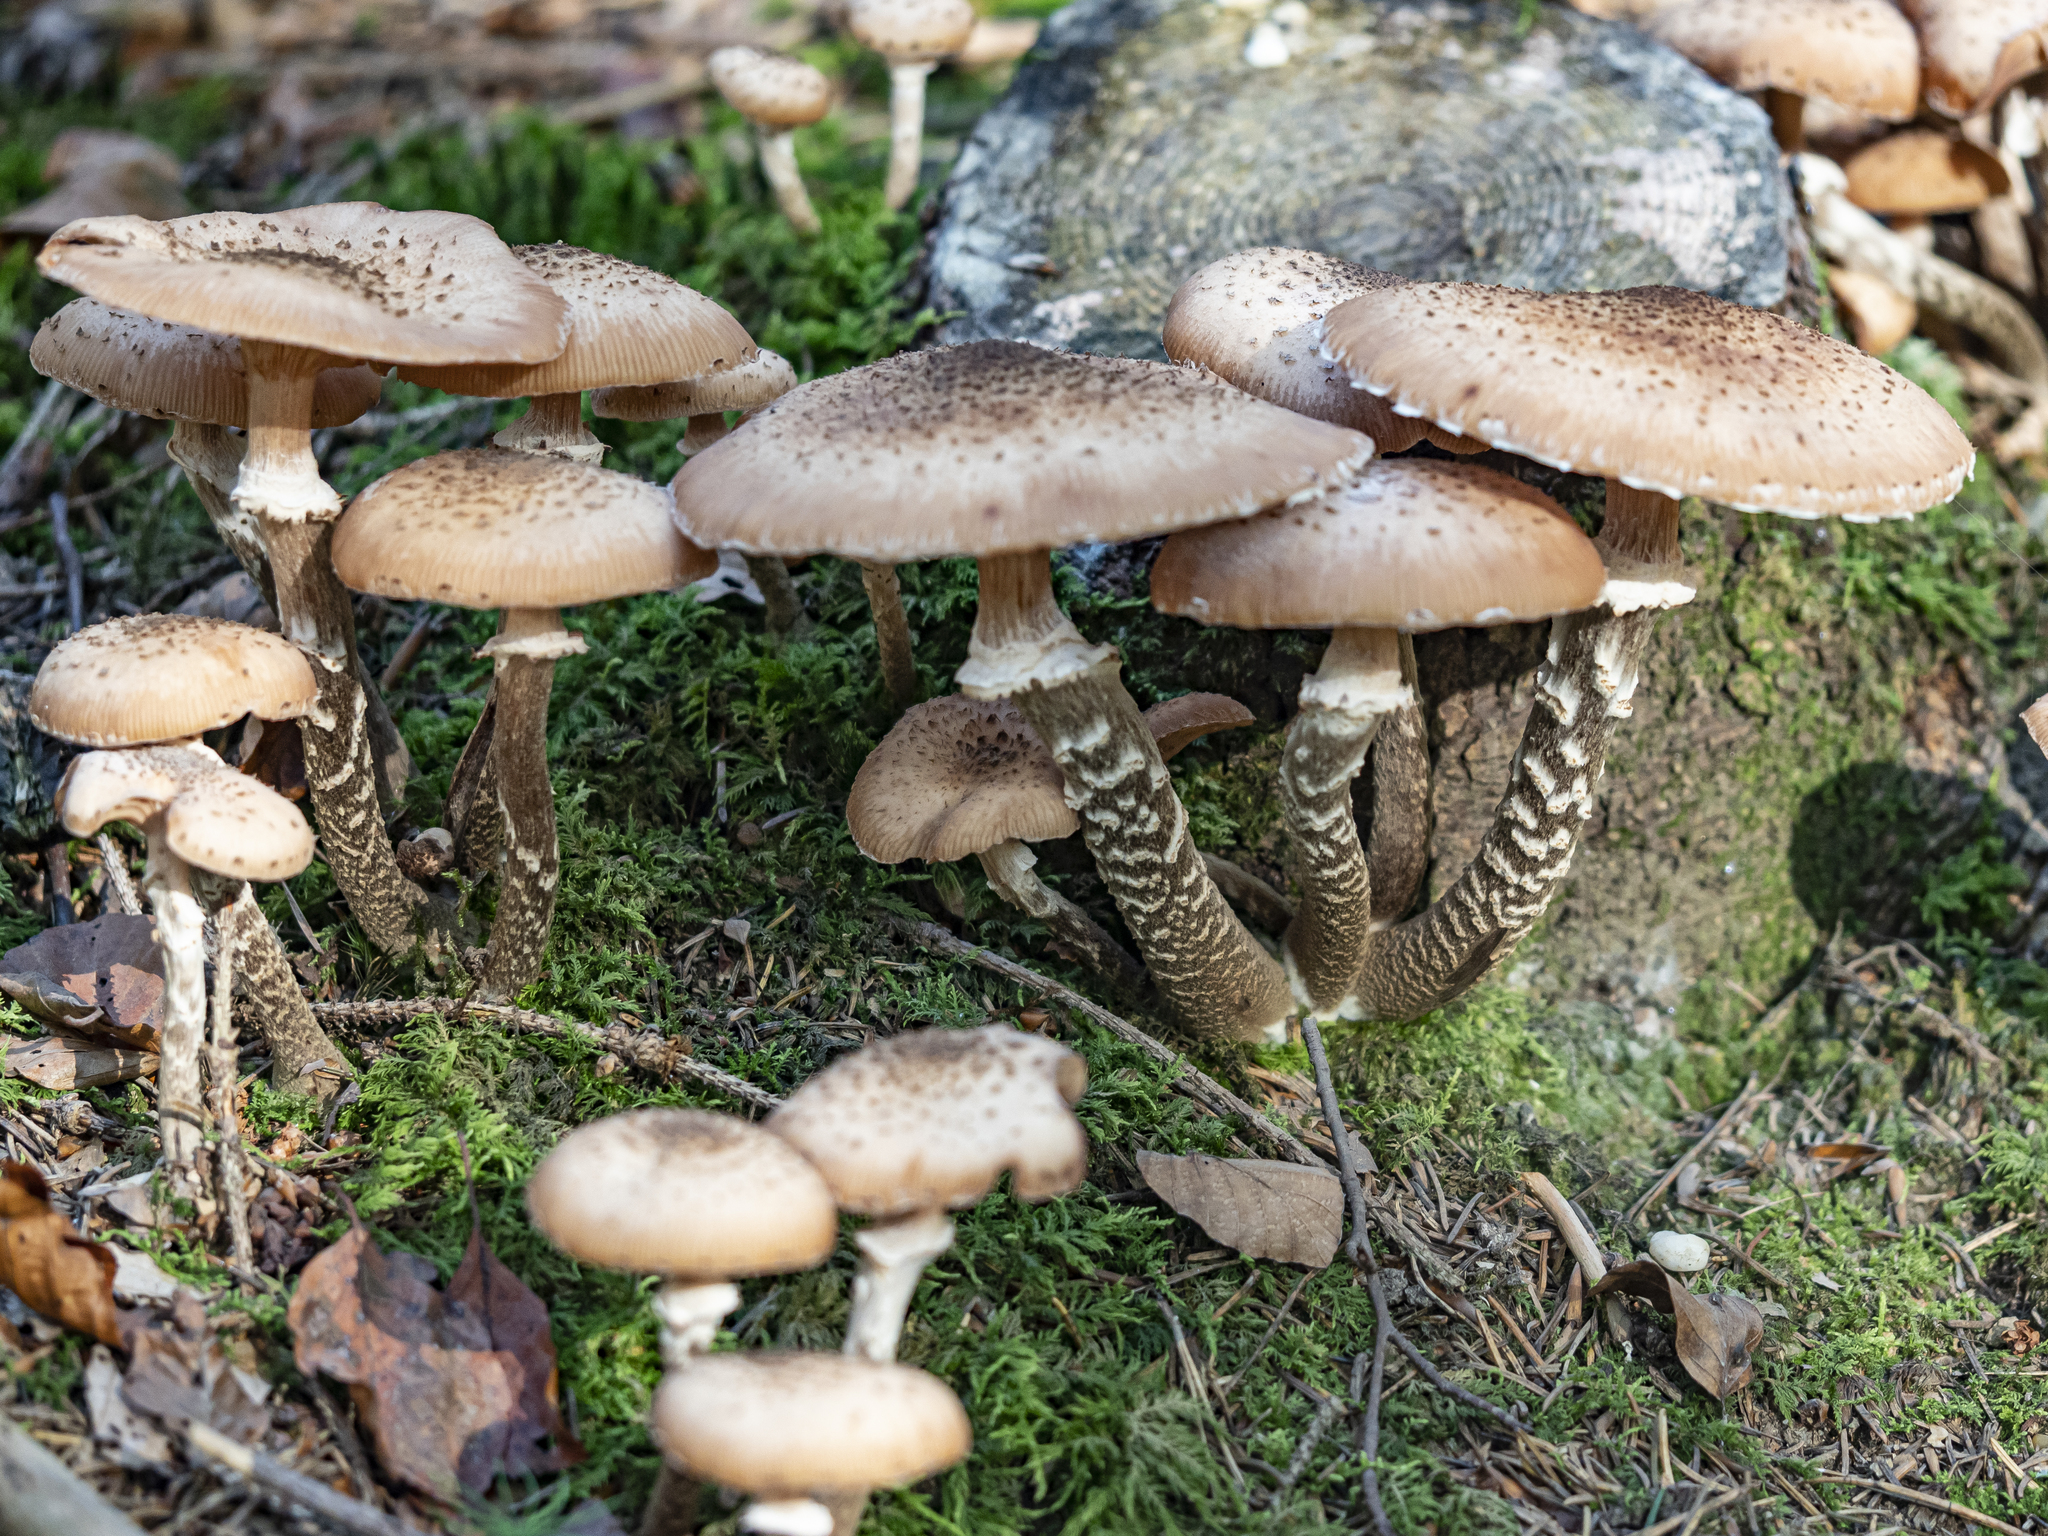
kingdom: Fungi
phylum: Basidiomycota
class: Agaricomycetes
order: Agaricales
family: Physalacriaceae
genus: Armillaria
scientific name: Armillaria ostoyae
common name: Dark honey fungus
